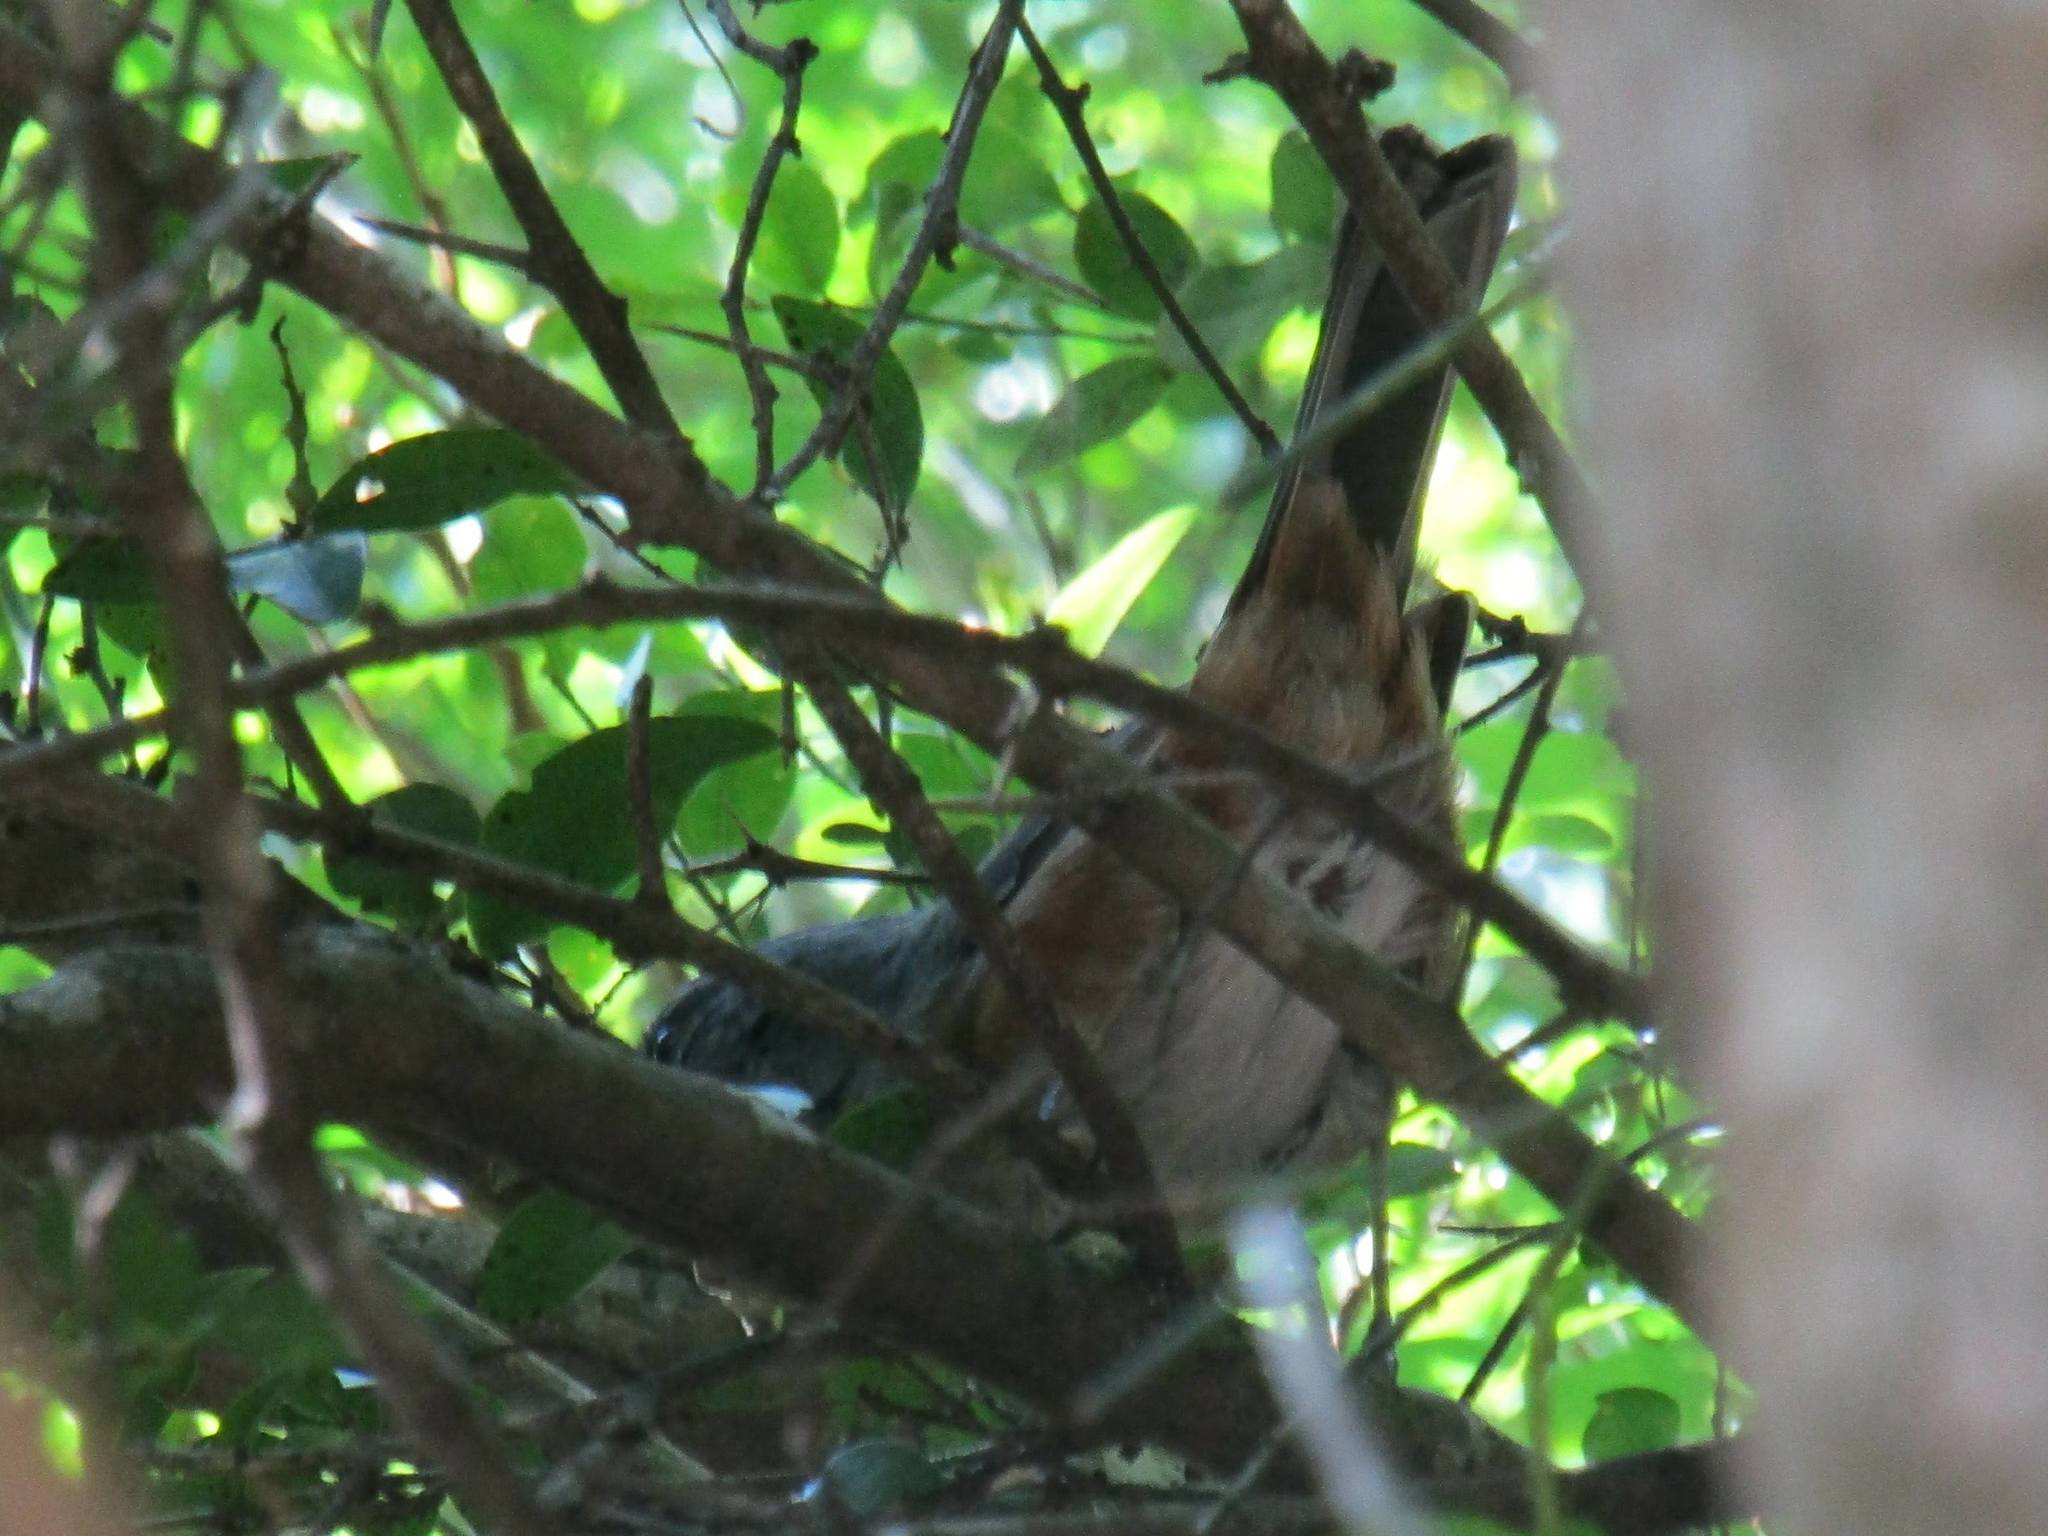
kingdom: Animalia
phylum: Chordata
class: Aves
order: Passeriformes
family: Thraupidae
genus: Microspingus
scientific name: Microspingus cabanisi
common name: Gray-throated warbling-finch
